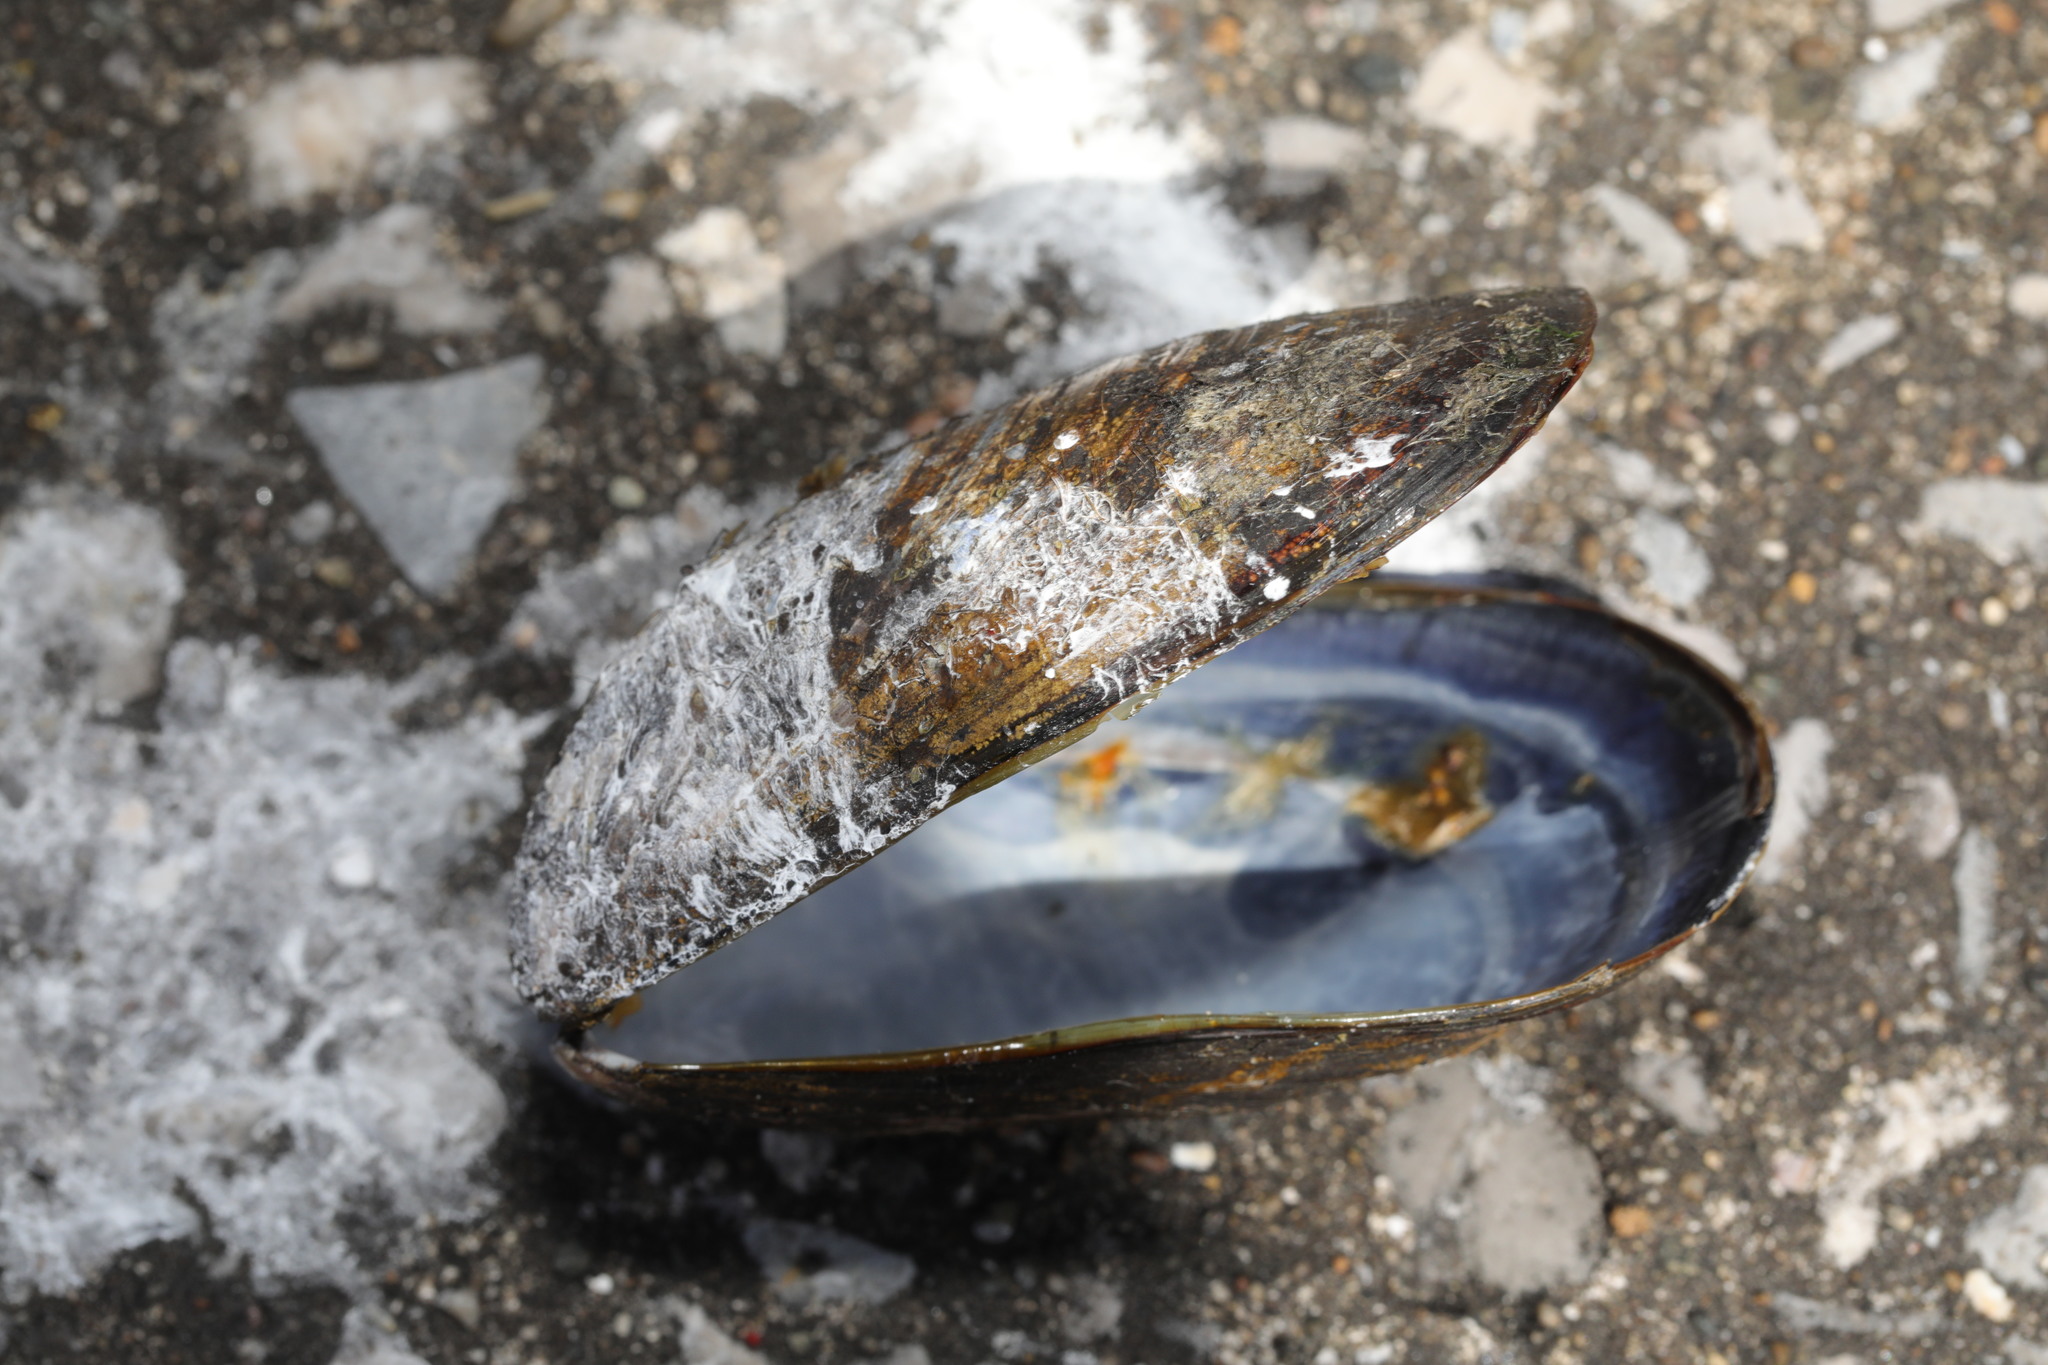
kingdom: Animalia
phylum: Mollusca
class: Bivalvia
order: Mytilida
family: Mytilidae
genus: Mytilus
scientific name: Mytilus edulis
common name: Blue mussel
